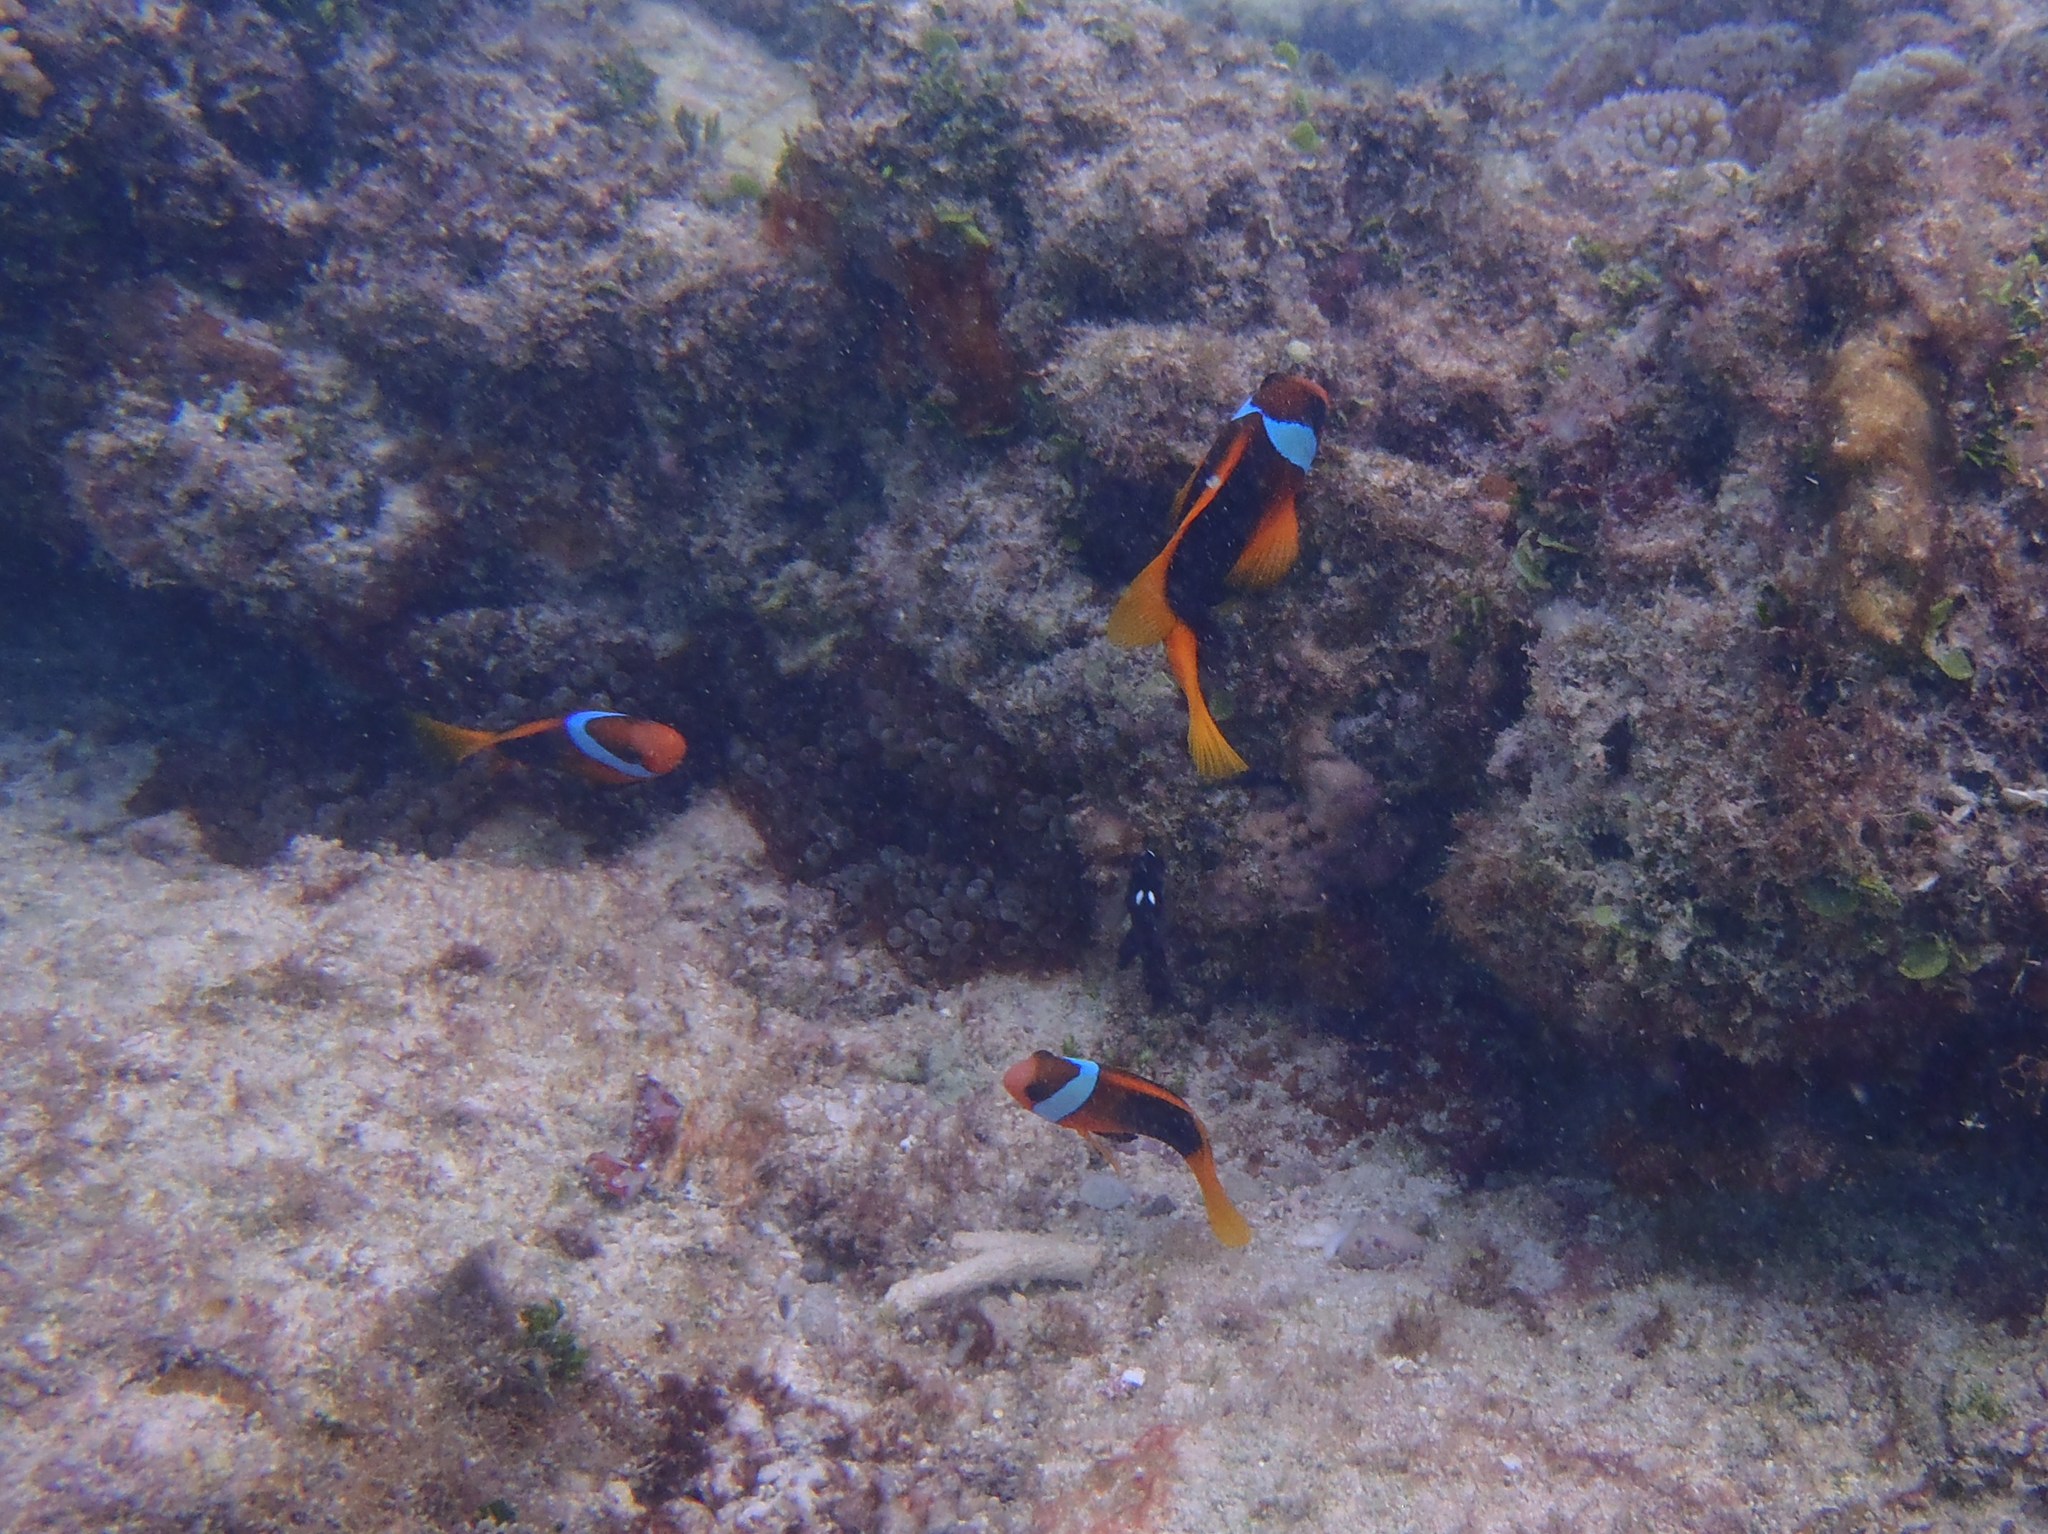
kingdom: Animalia
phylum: Chordata
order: Perciformes
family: Pomacentridae
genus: Amphiprion
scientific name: Amphiprion melanopus
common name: Black anemonefish
